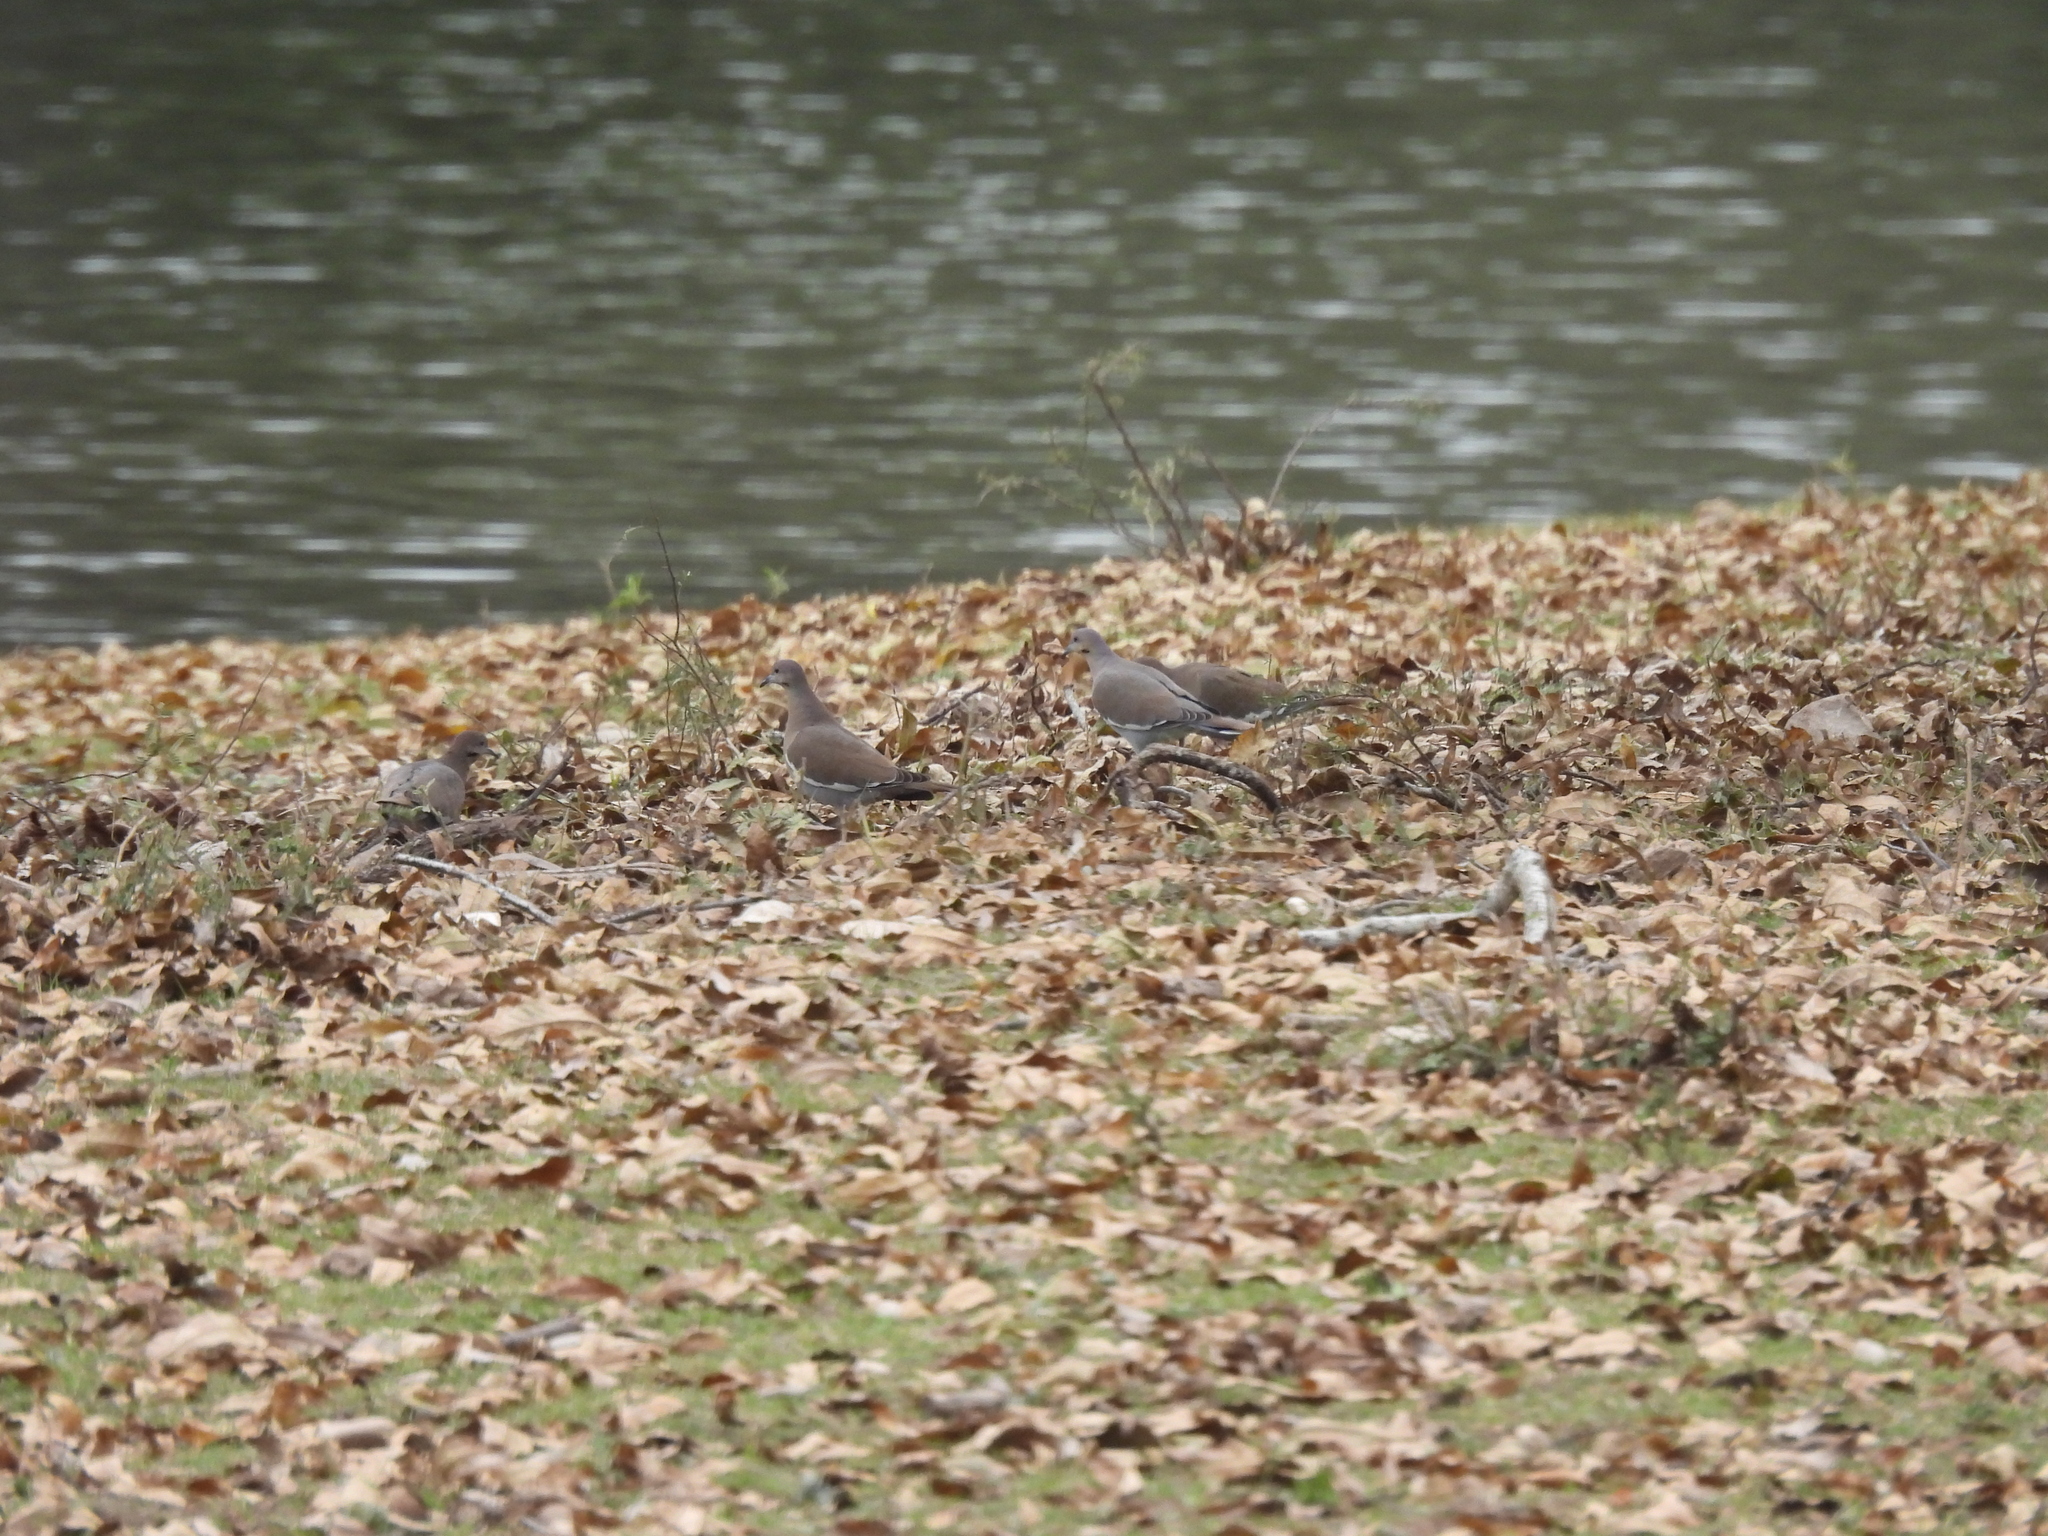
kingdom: Animalia
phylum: Chordata
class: Aves
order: Columbiformes
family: Columbidae
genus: Zenaida
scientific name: Zenaida asiatica
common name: White-winged dove
